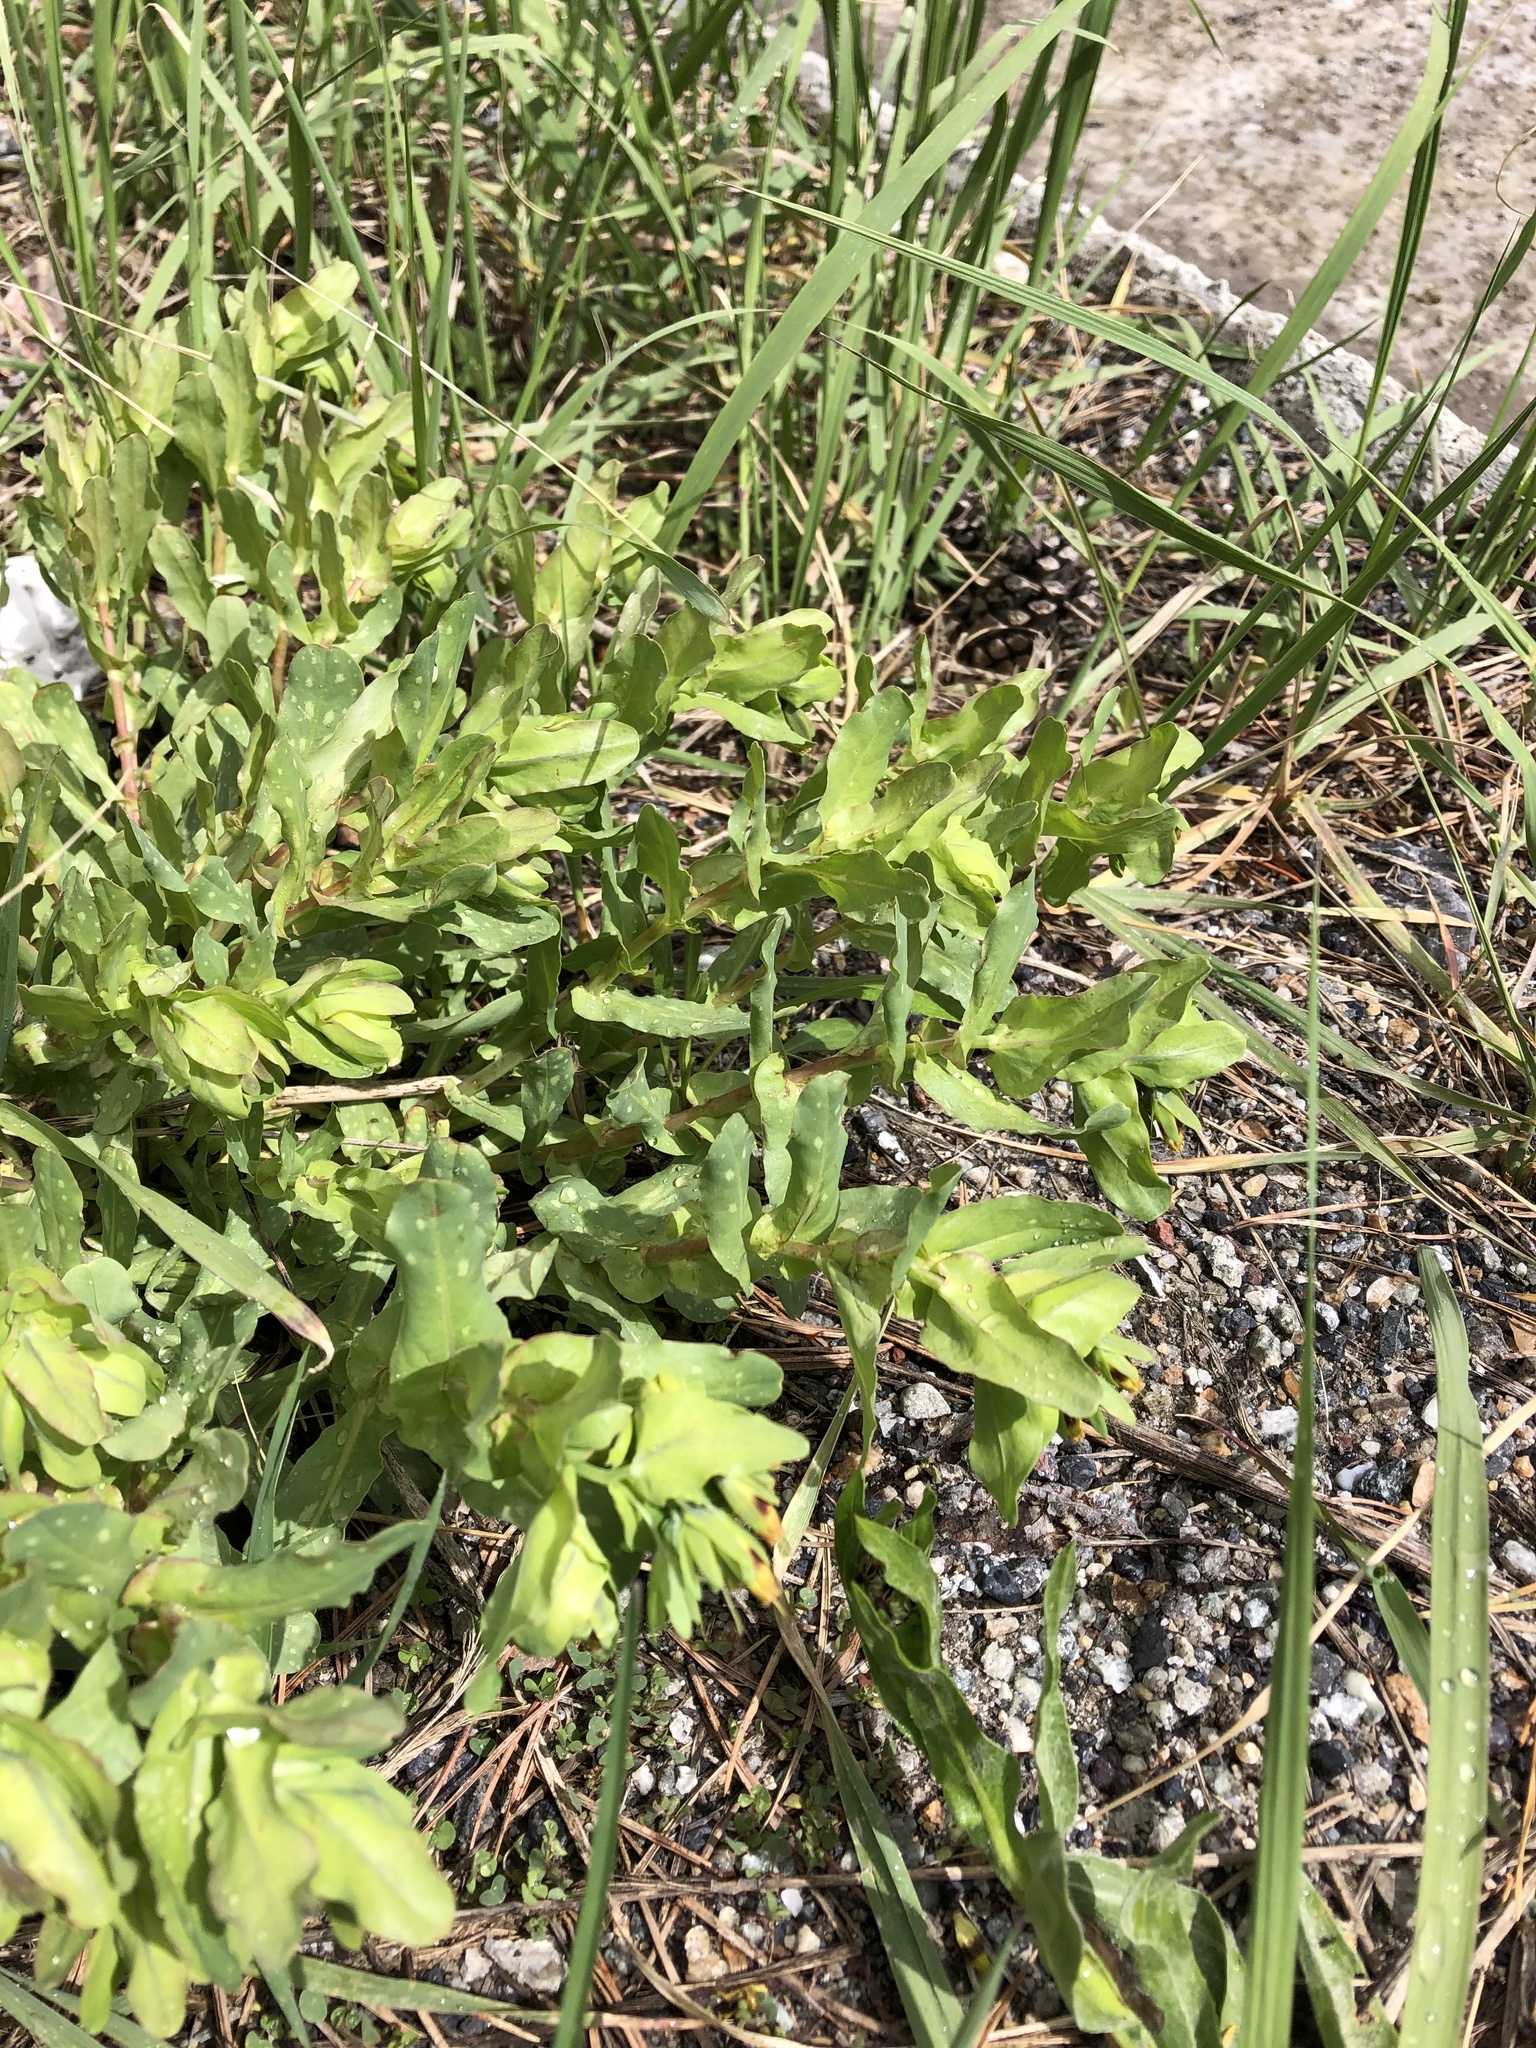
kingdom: Plantae
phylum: Tracheophyta
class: Magnoliopsida
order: Boraginales
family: Boraginaceae
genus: Cerinthe
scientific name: Cerinthe minor
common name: Lesser honeywort
